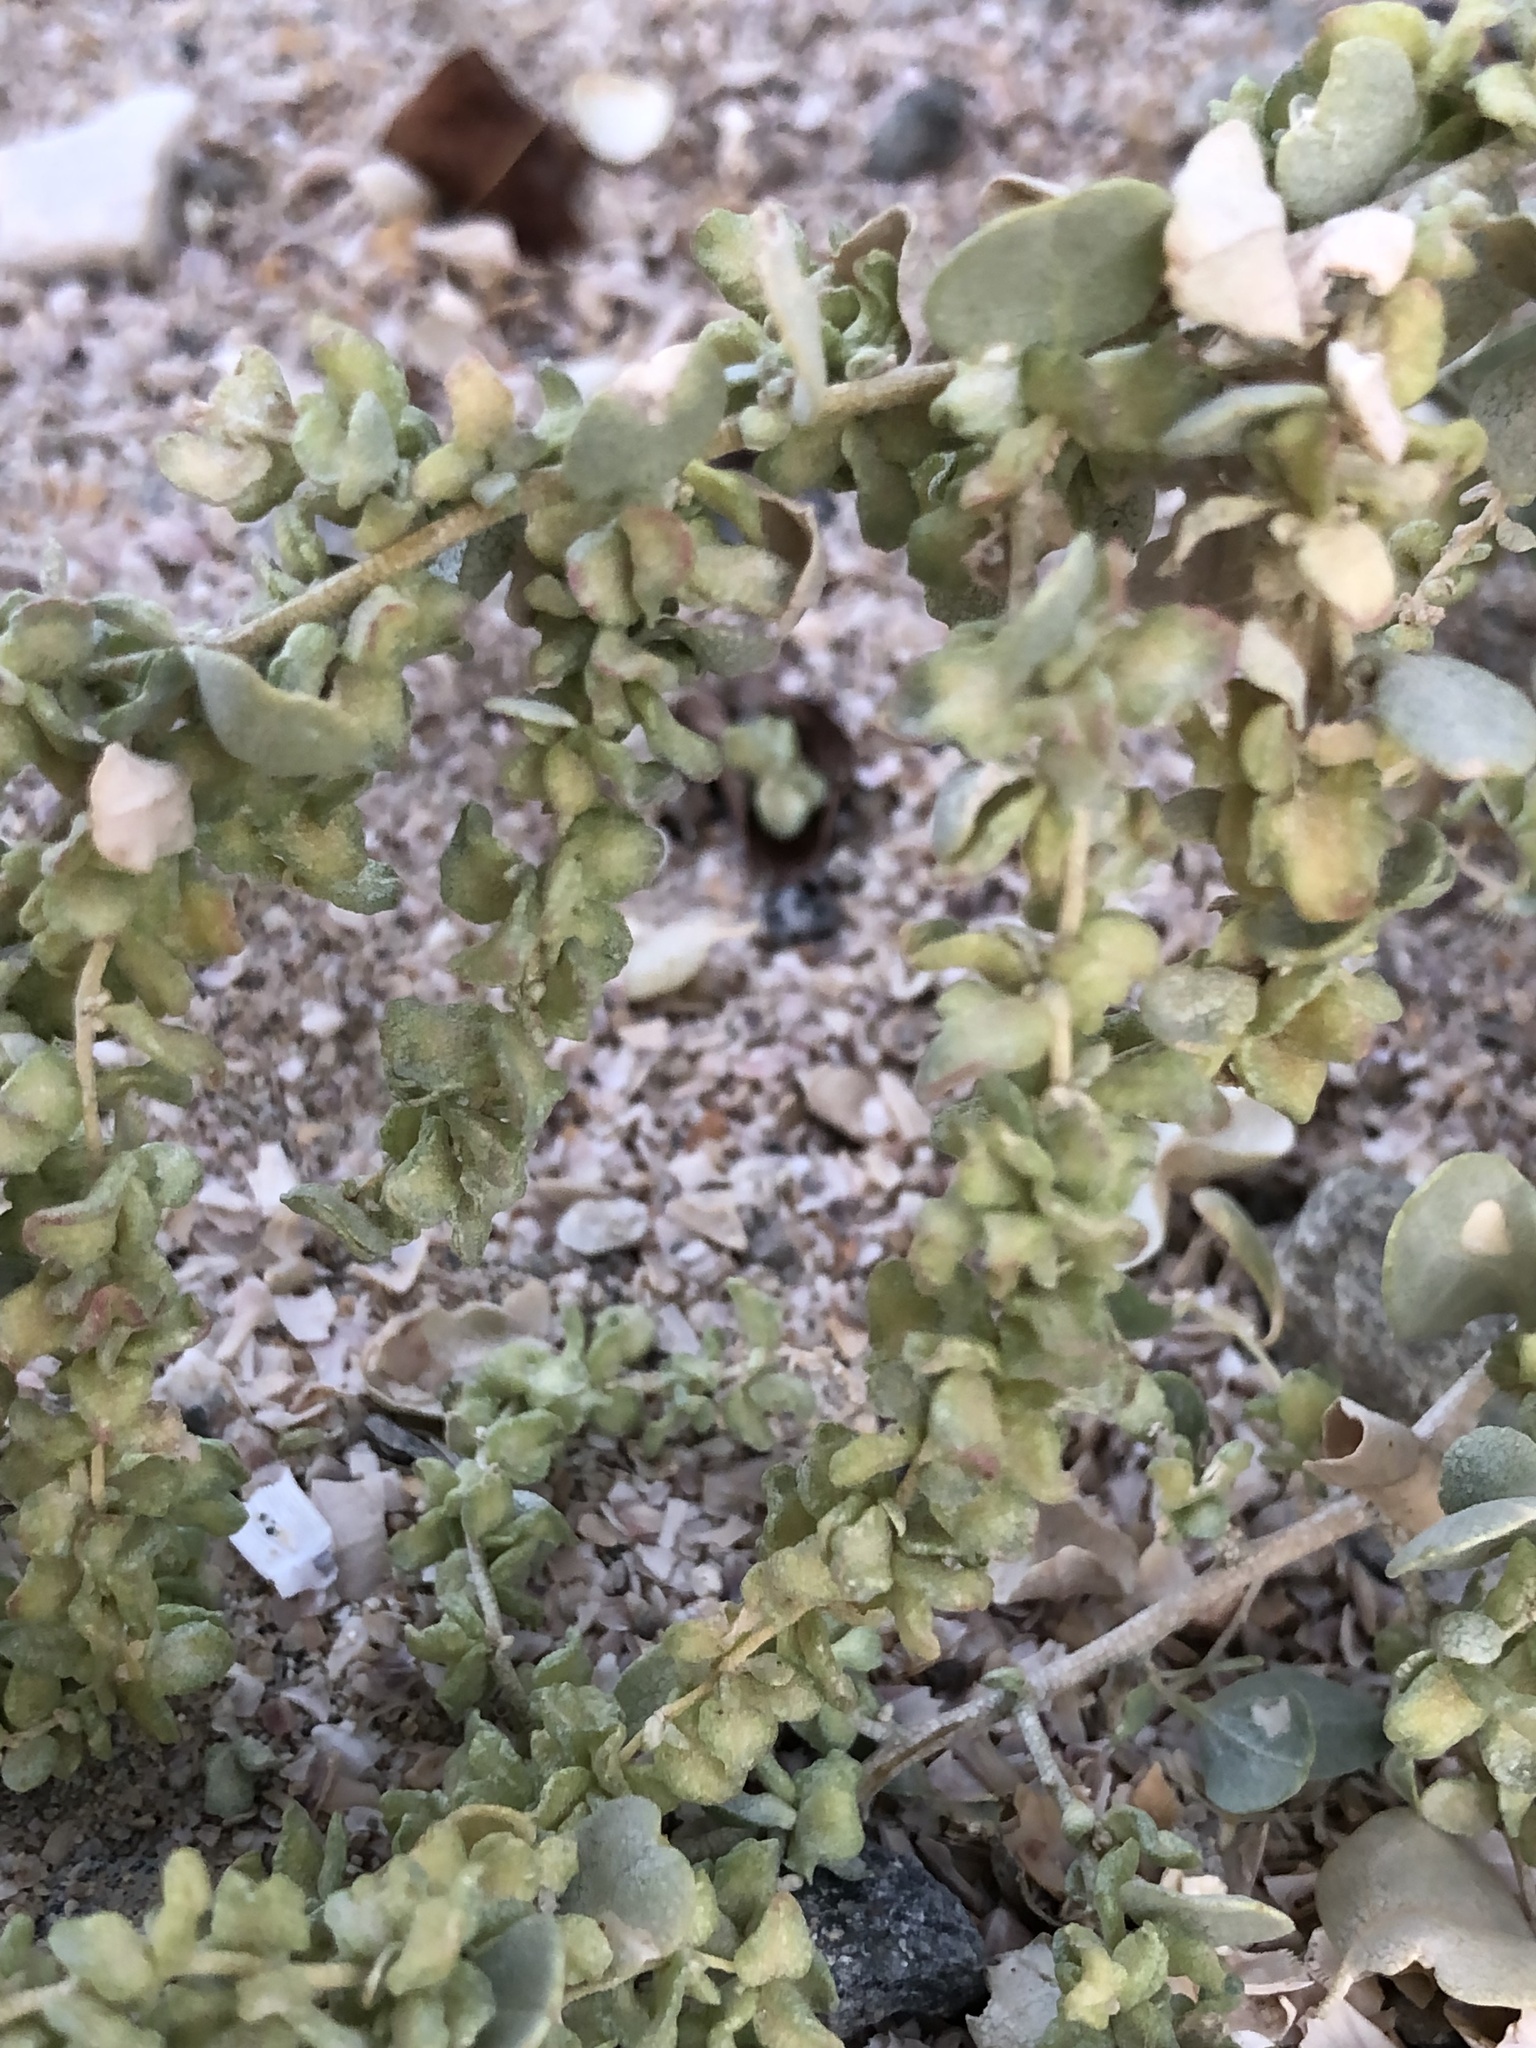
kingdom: Plantae
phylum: Tracheophyta
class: Magnoliopsida
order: Caryophyllales
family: Amaranthaceae
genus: Atriplex
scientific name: Atriplex lentiformis
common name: Big saltbush
